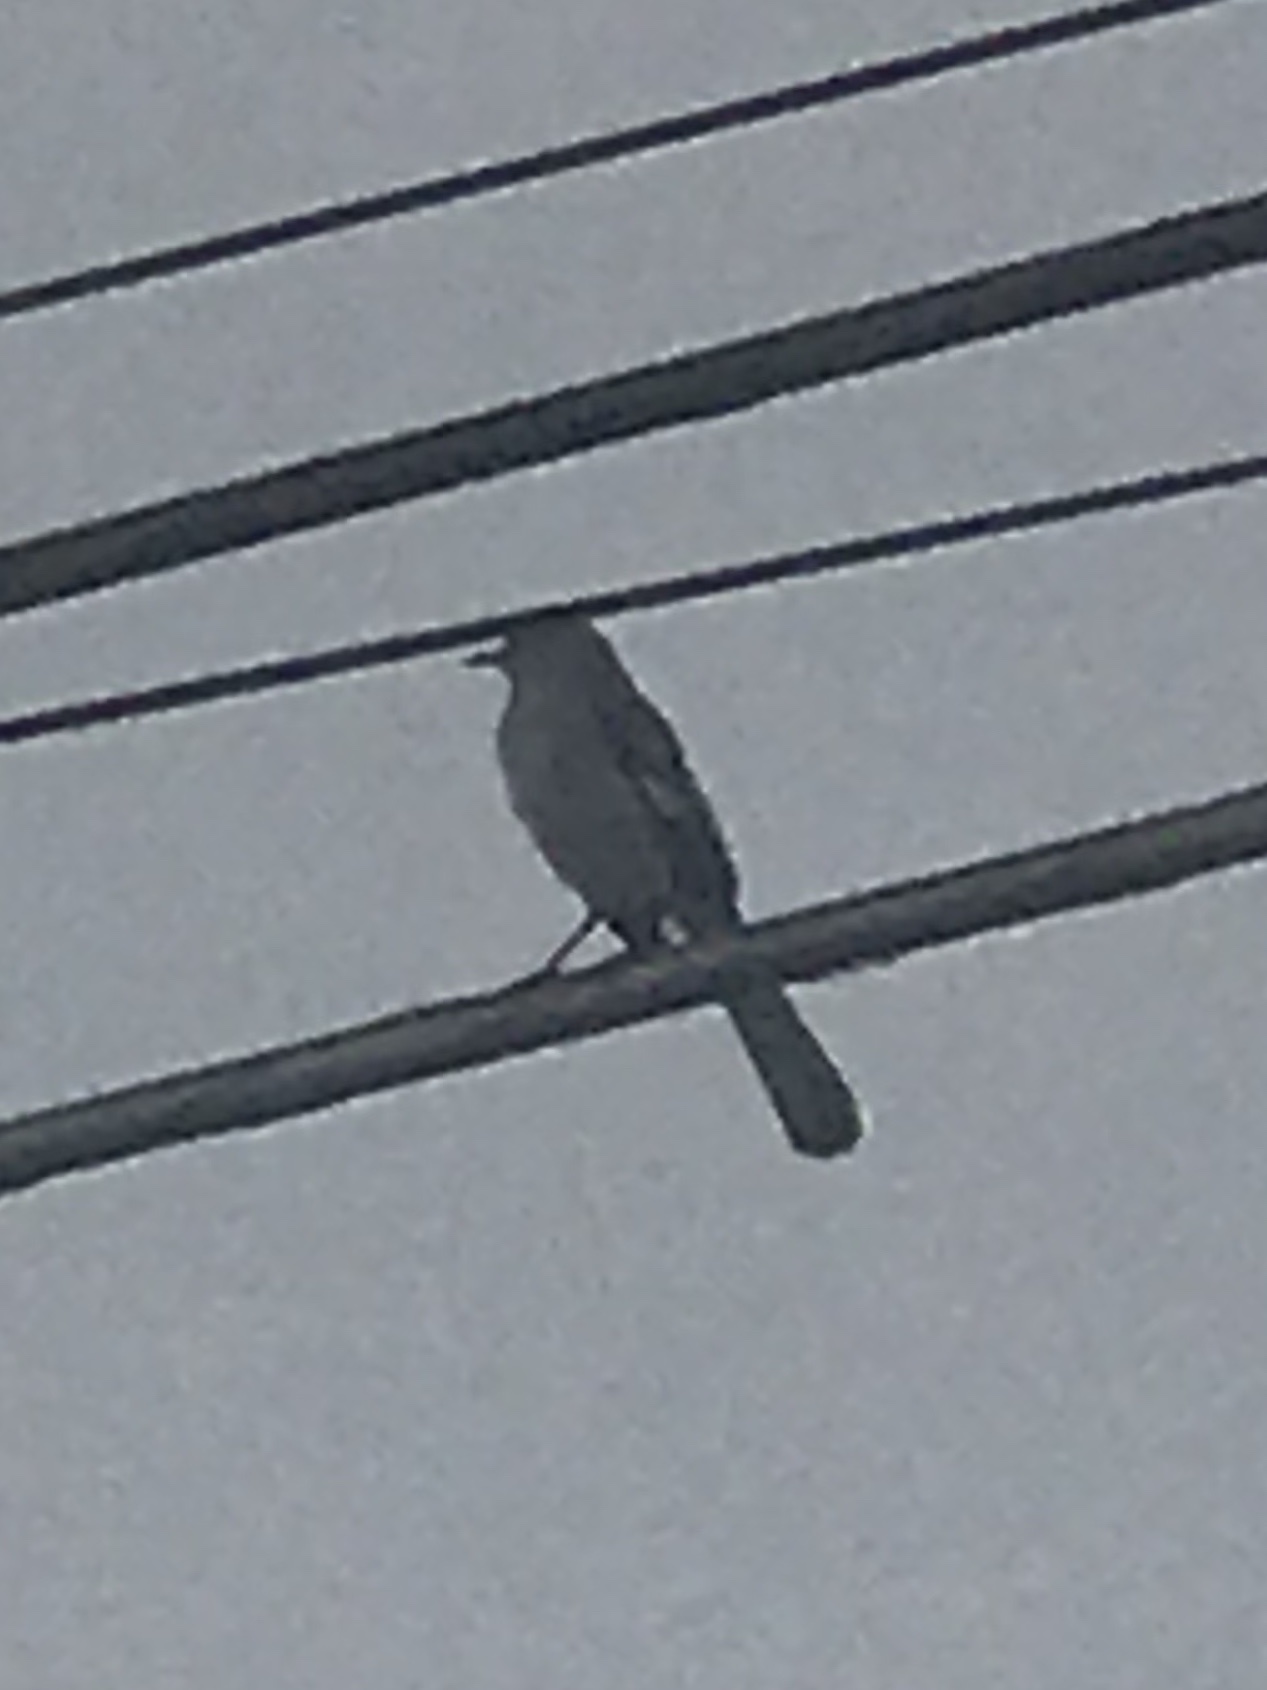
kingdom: Animalia
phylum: Chordata
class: Aves
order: Passeriformes
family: Mimidae
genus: Mimus
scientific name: Mimus polyglottos
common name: Northern mockingbird
